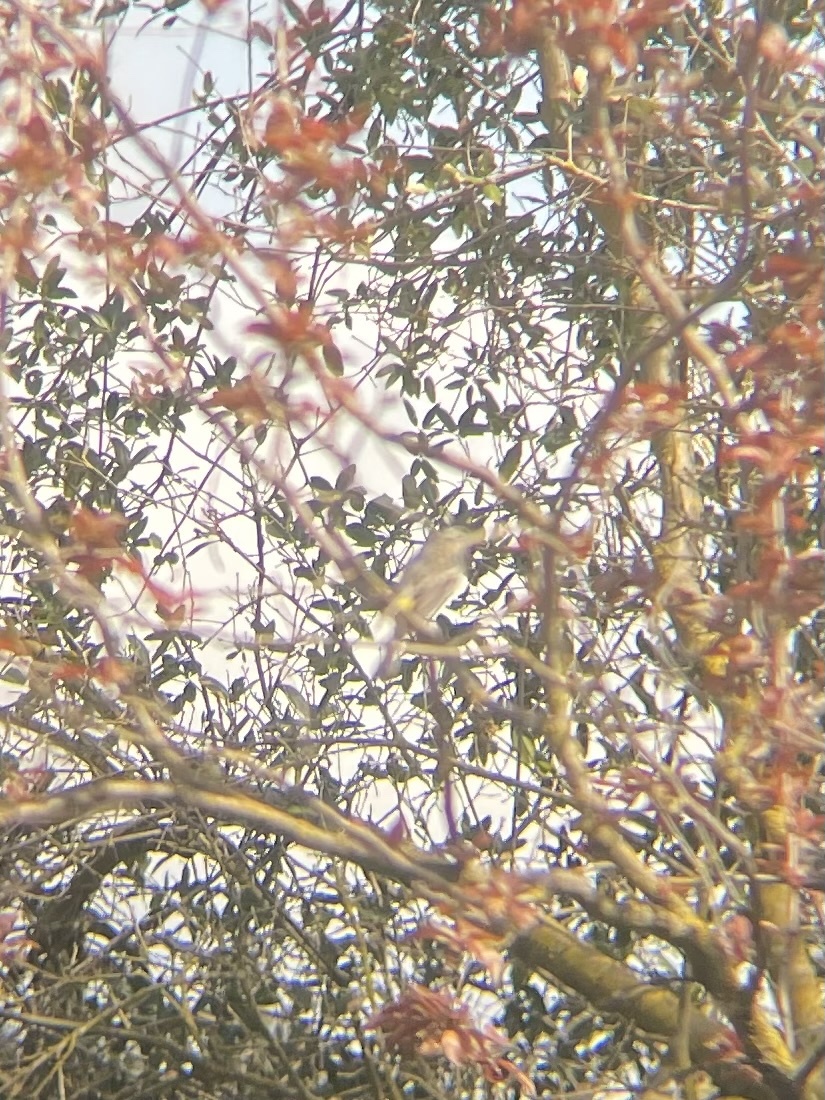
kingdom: Animalia
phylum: Chordata
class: Aves
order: Passeriformes
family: Parulidae
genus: Setophaga
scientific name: Setophaga coronata
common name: Myrtle warbler
